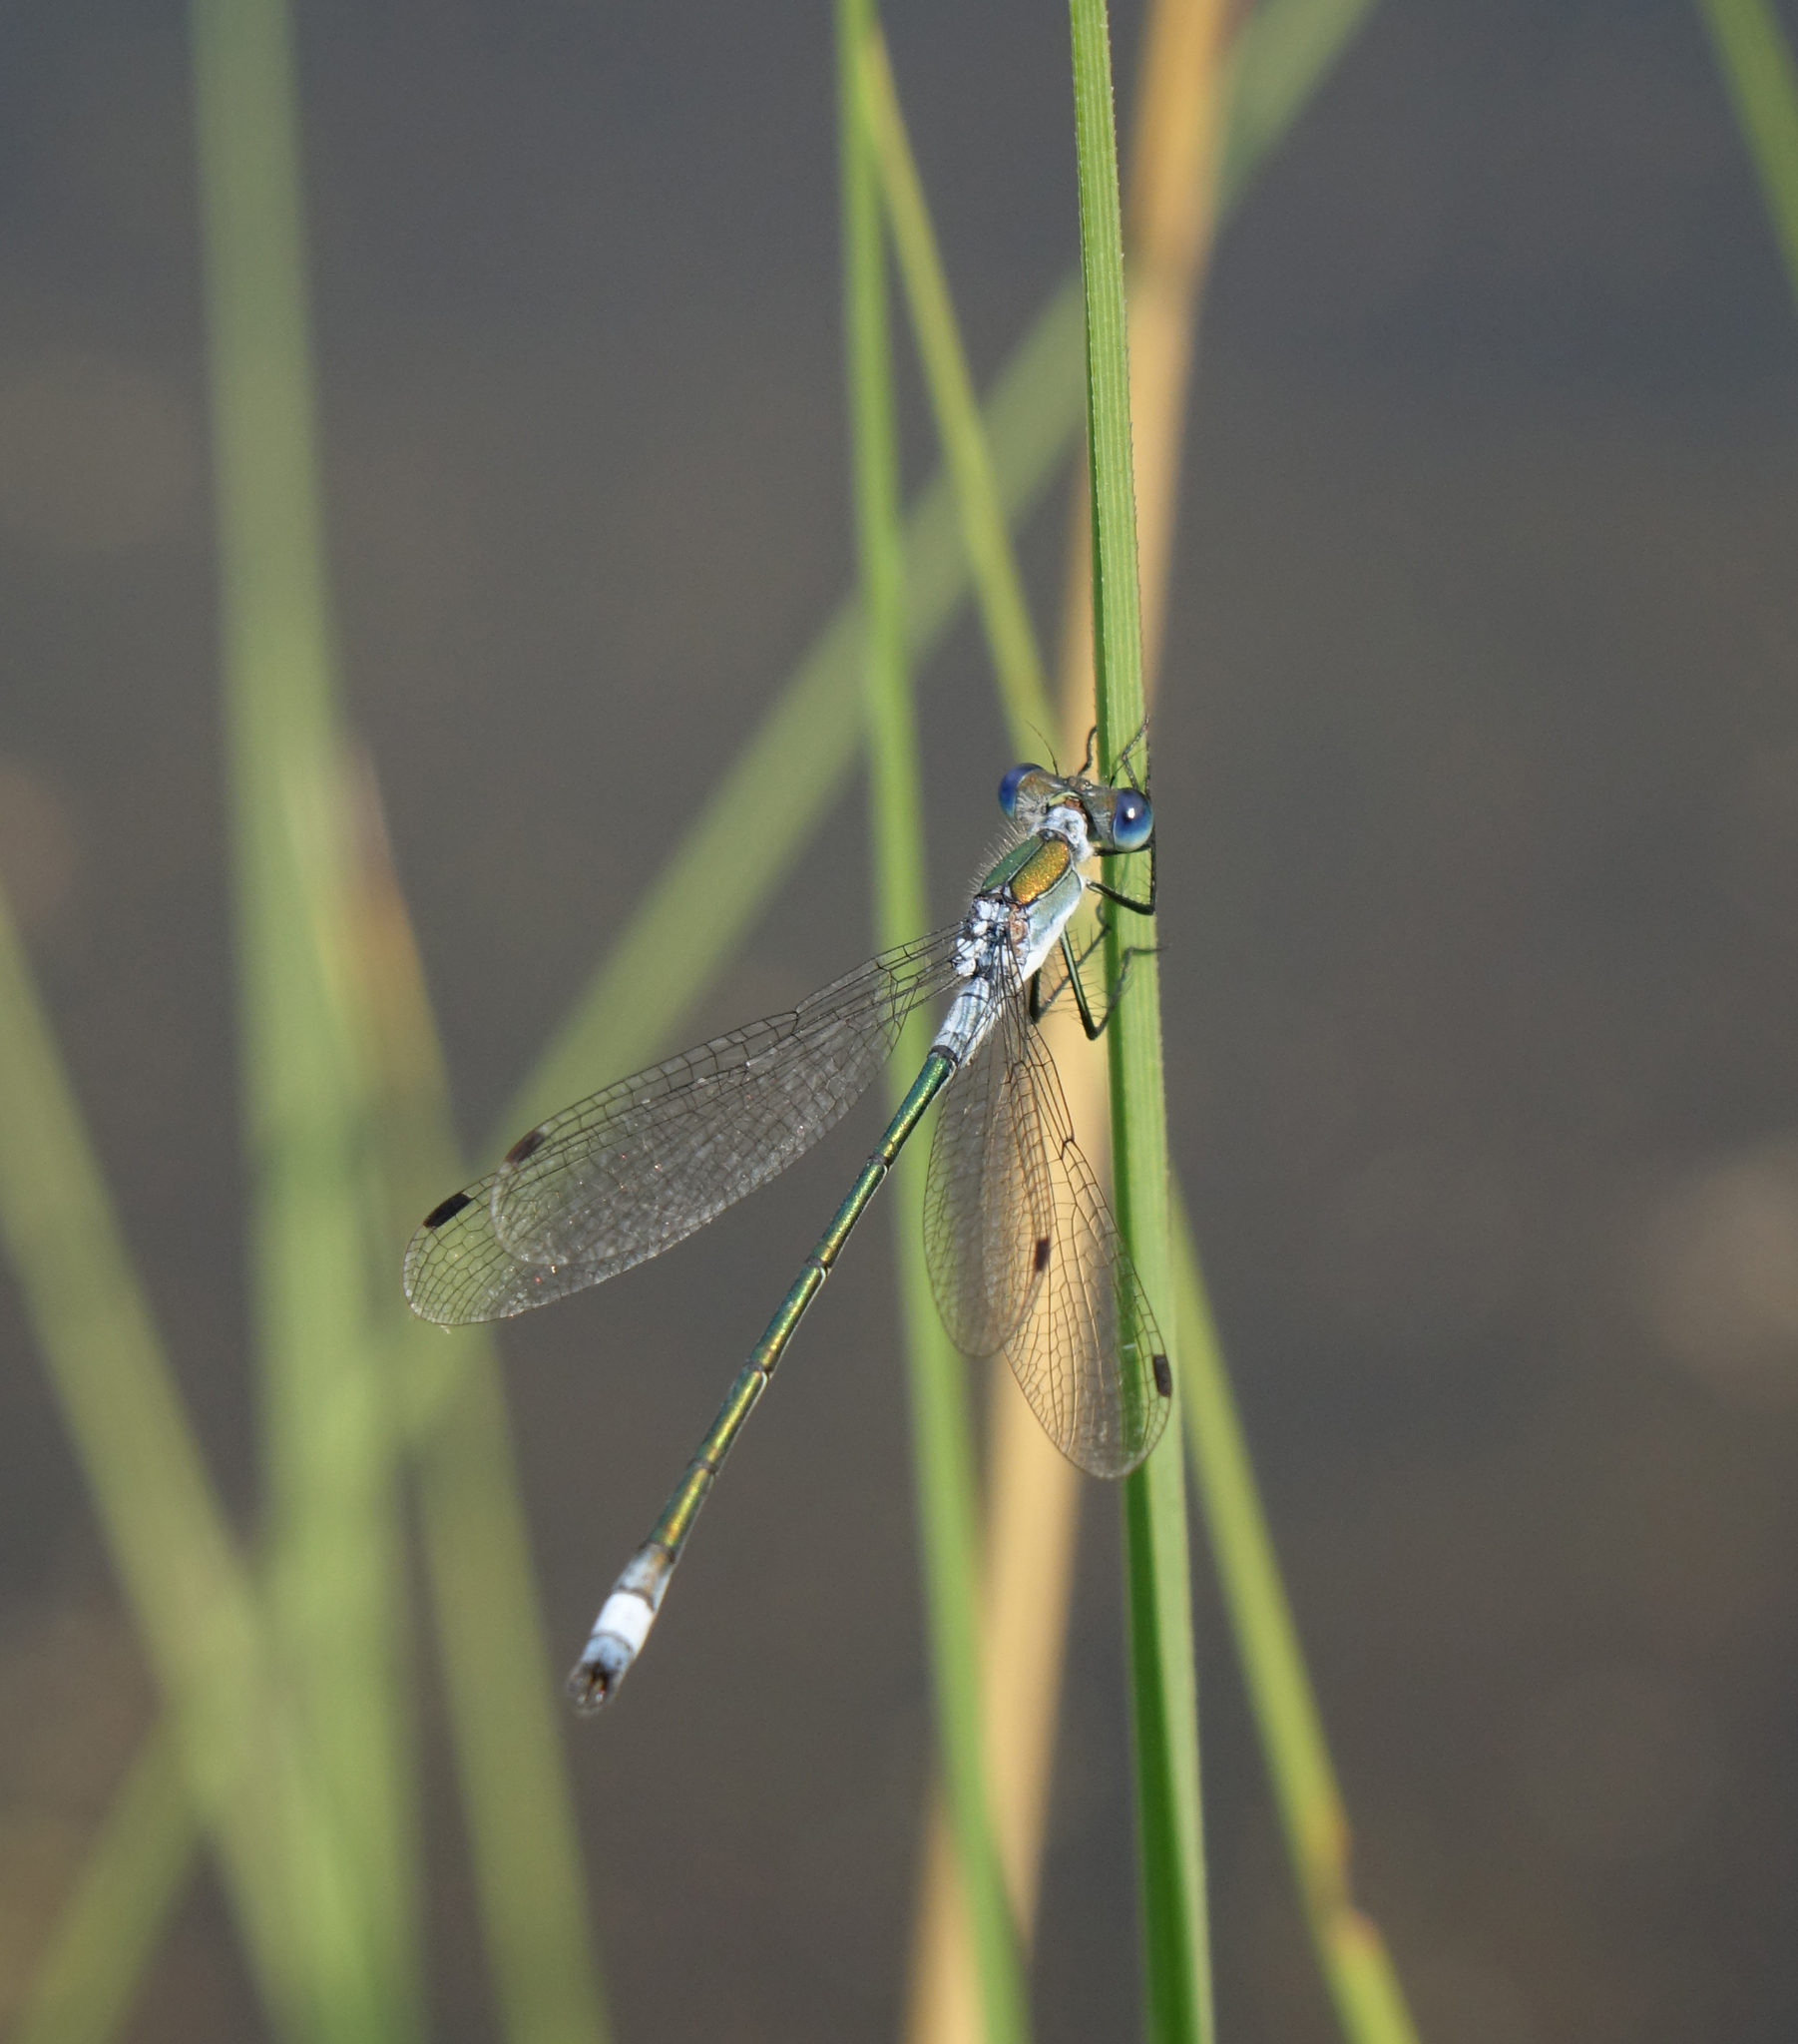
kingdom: Animalia
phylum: Arthropoda
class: Insecta
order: Odonata
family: Lestidae
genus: Lestes
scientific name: Lestes sponsa
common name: Common spreadwing
